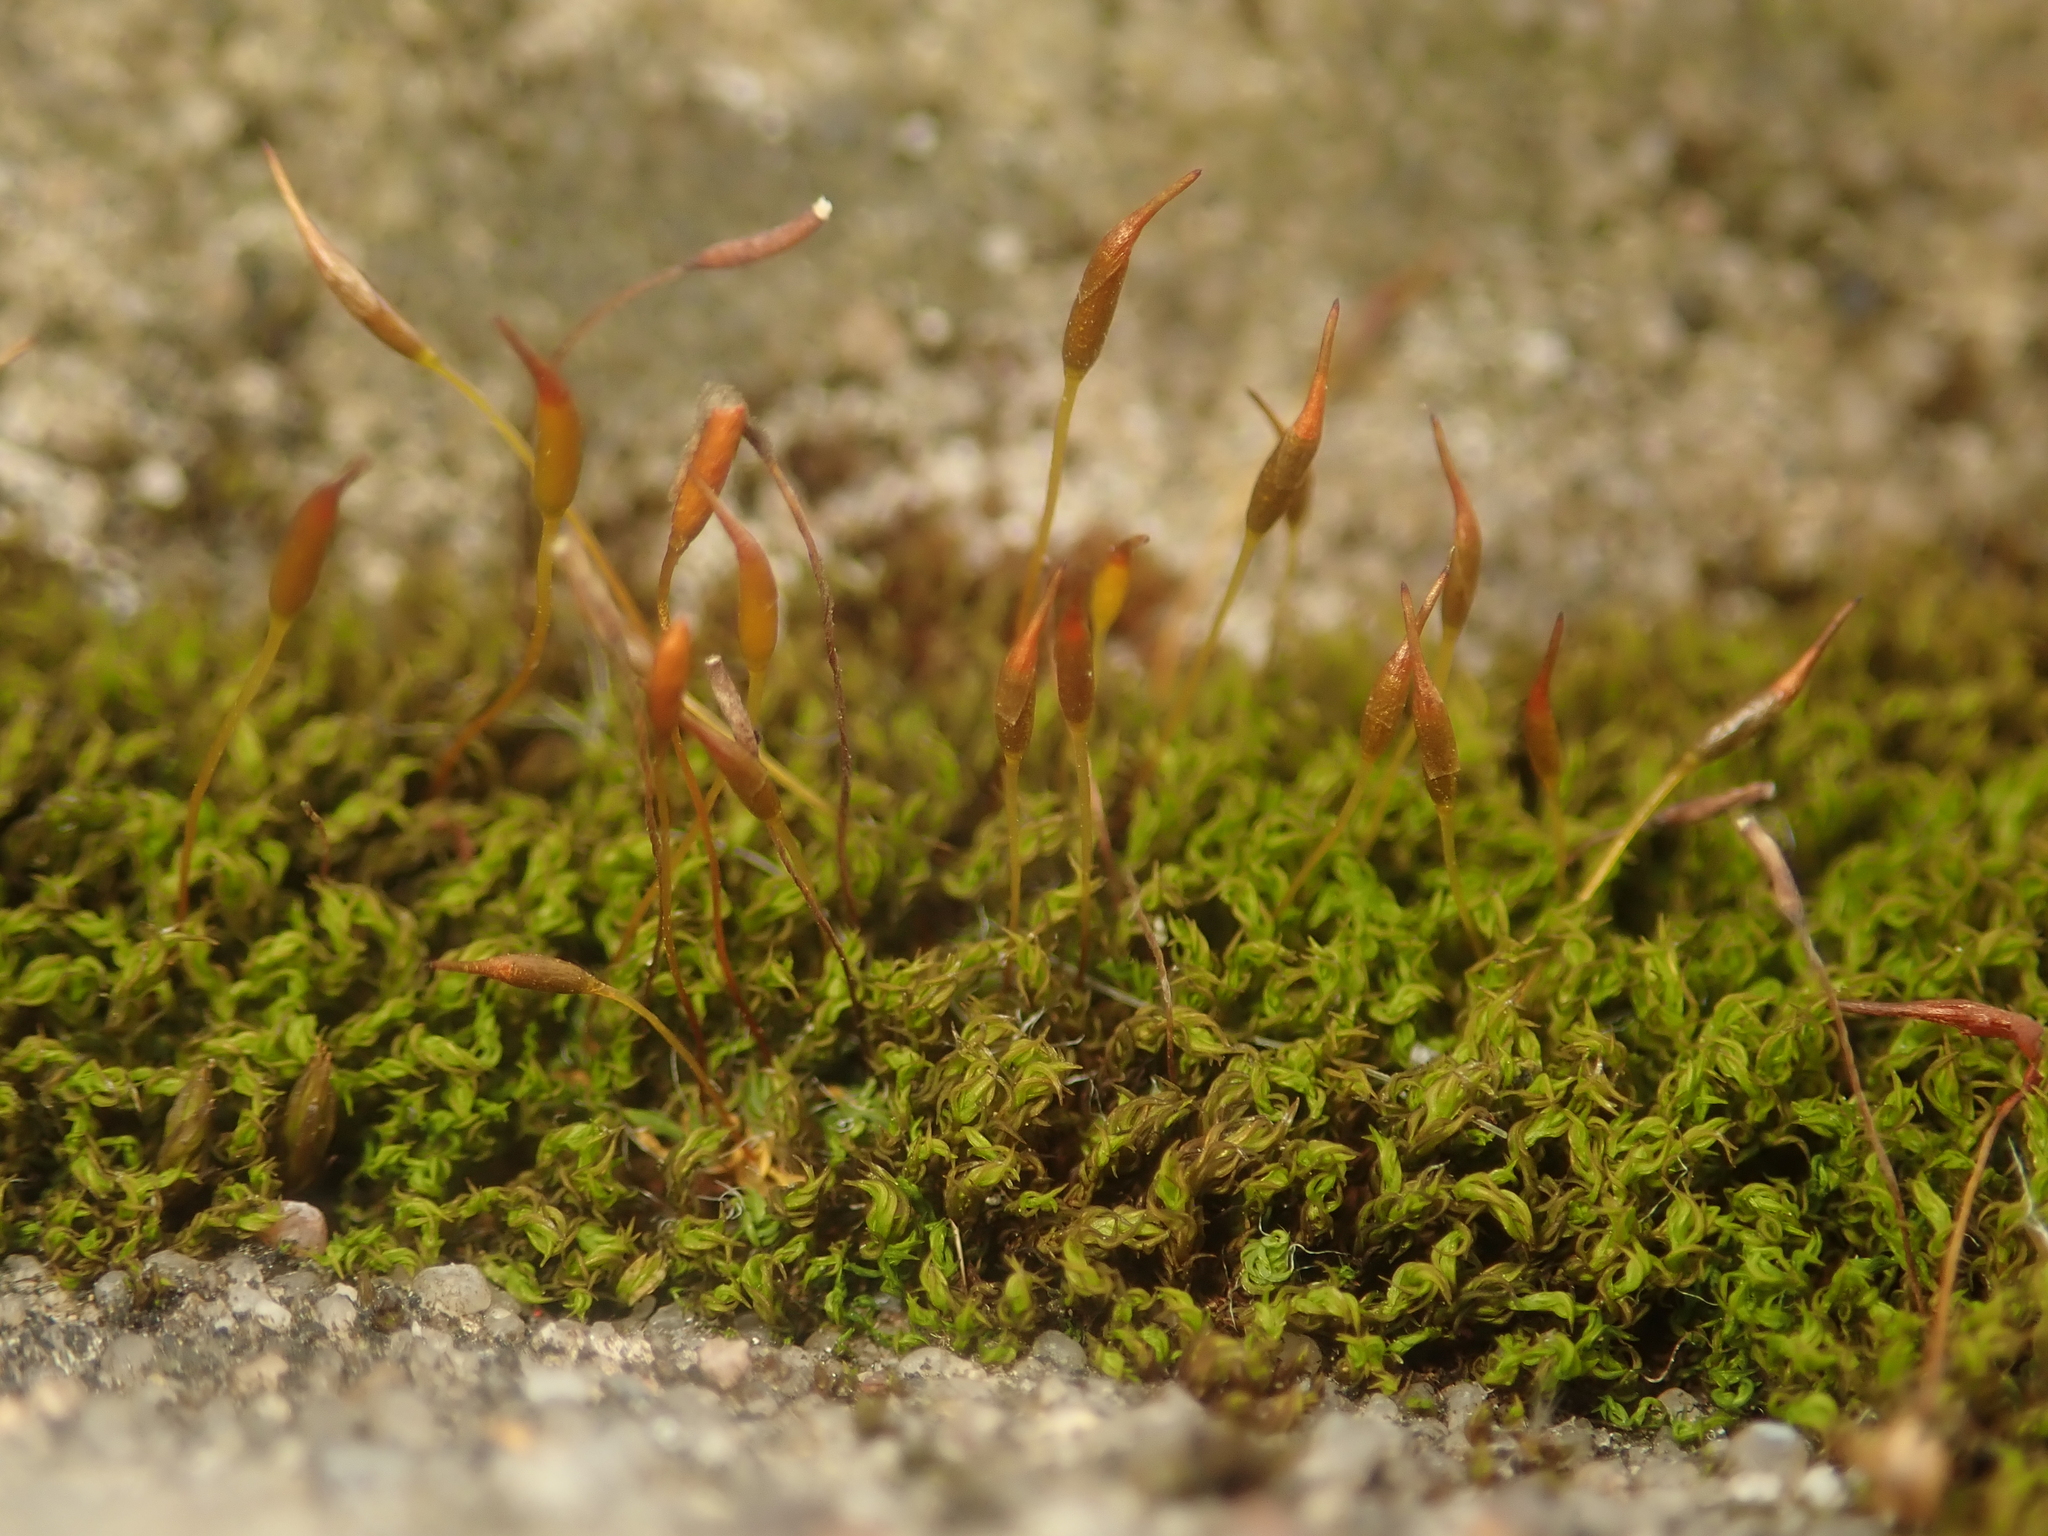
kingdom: Plantae
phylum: Bryophyta
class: Bryopsida
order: Pottiales
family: Pottiaceae
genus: Tortula
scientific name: Tortula muralis
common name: Wall screw-moss
